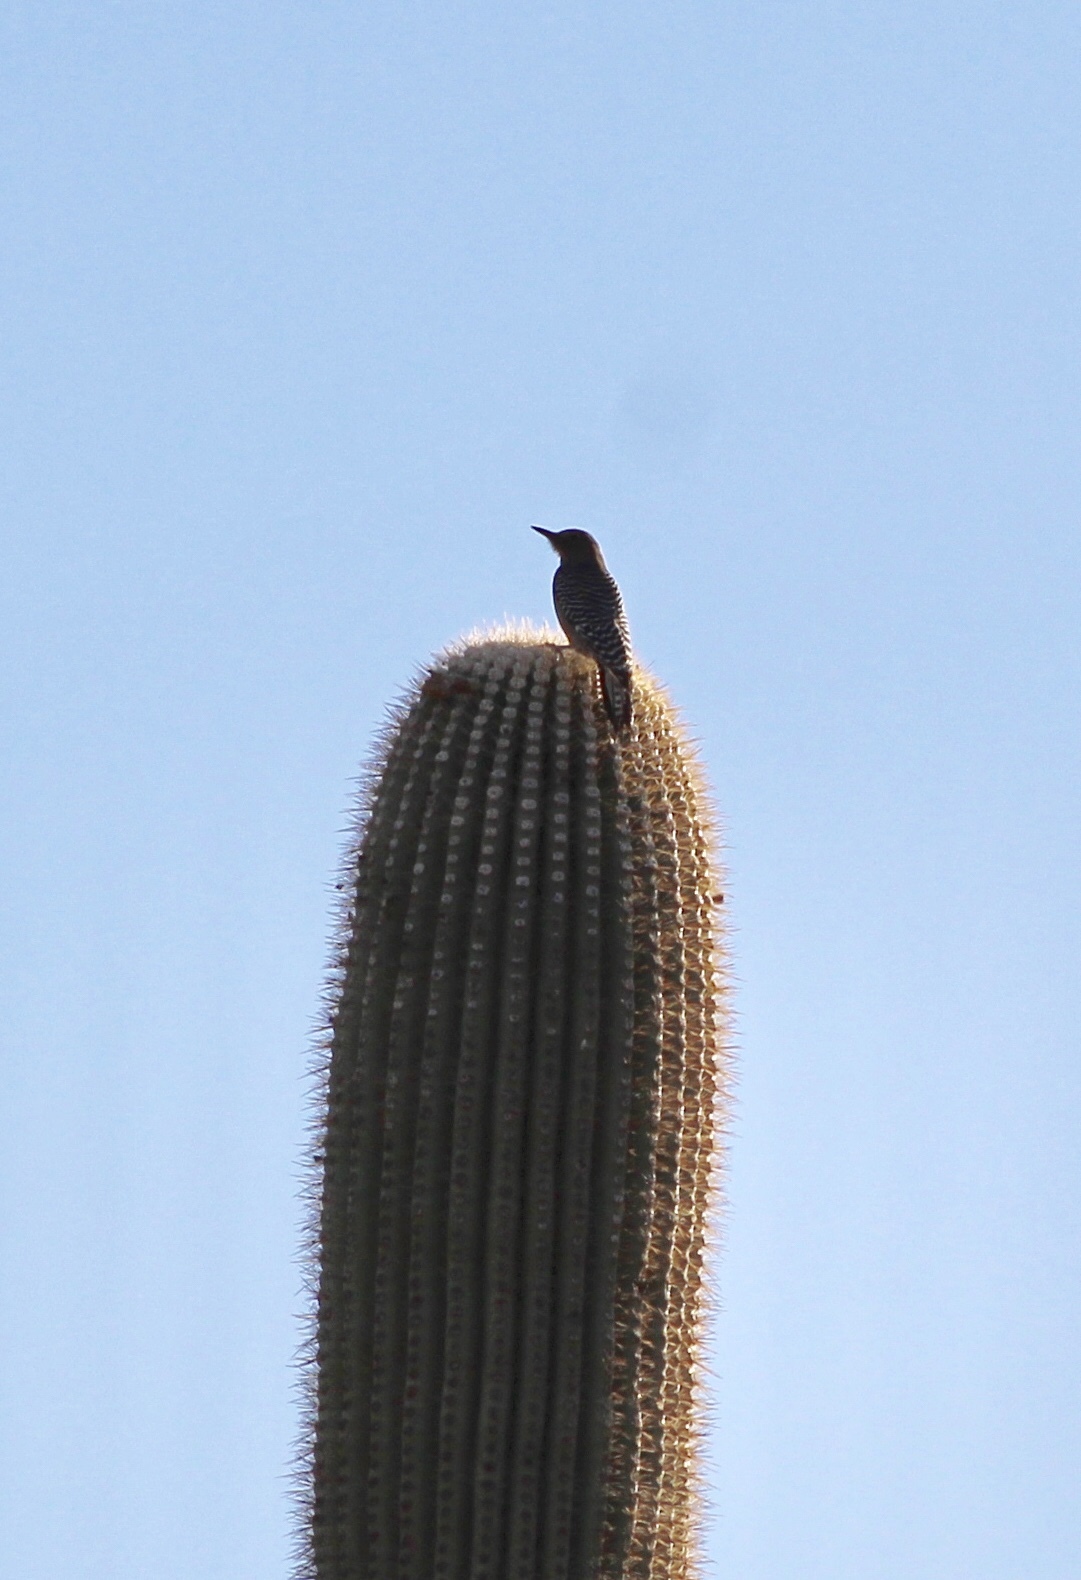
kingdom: Animalia
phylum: Chordata
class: Aves
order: Piciformes
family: Picidae
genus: Melanerpes
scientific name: Melanerpes uropygialis
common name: Gila woodpecker
